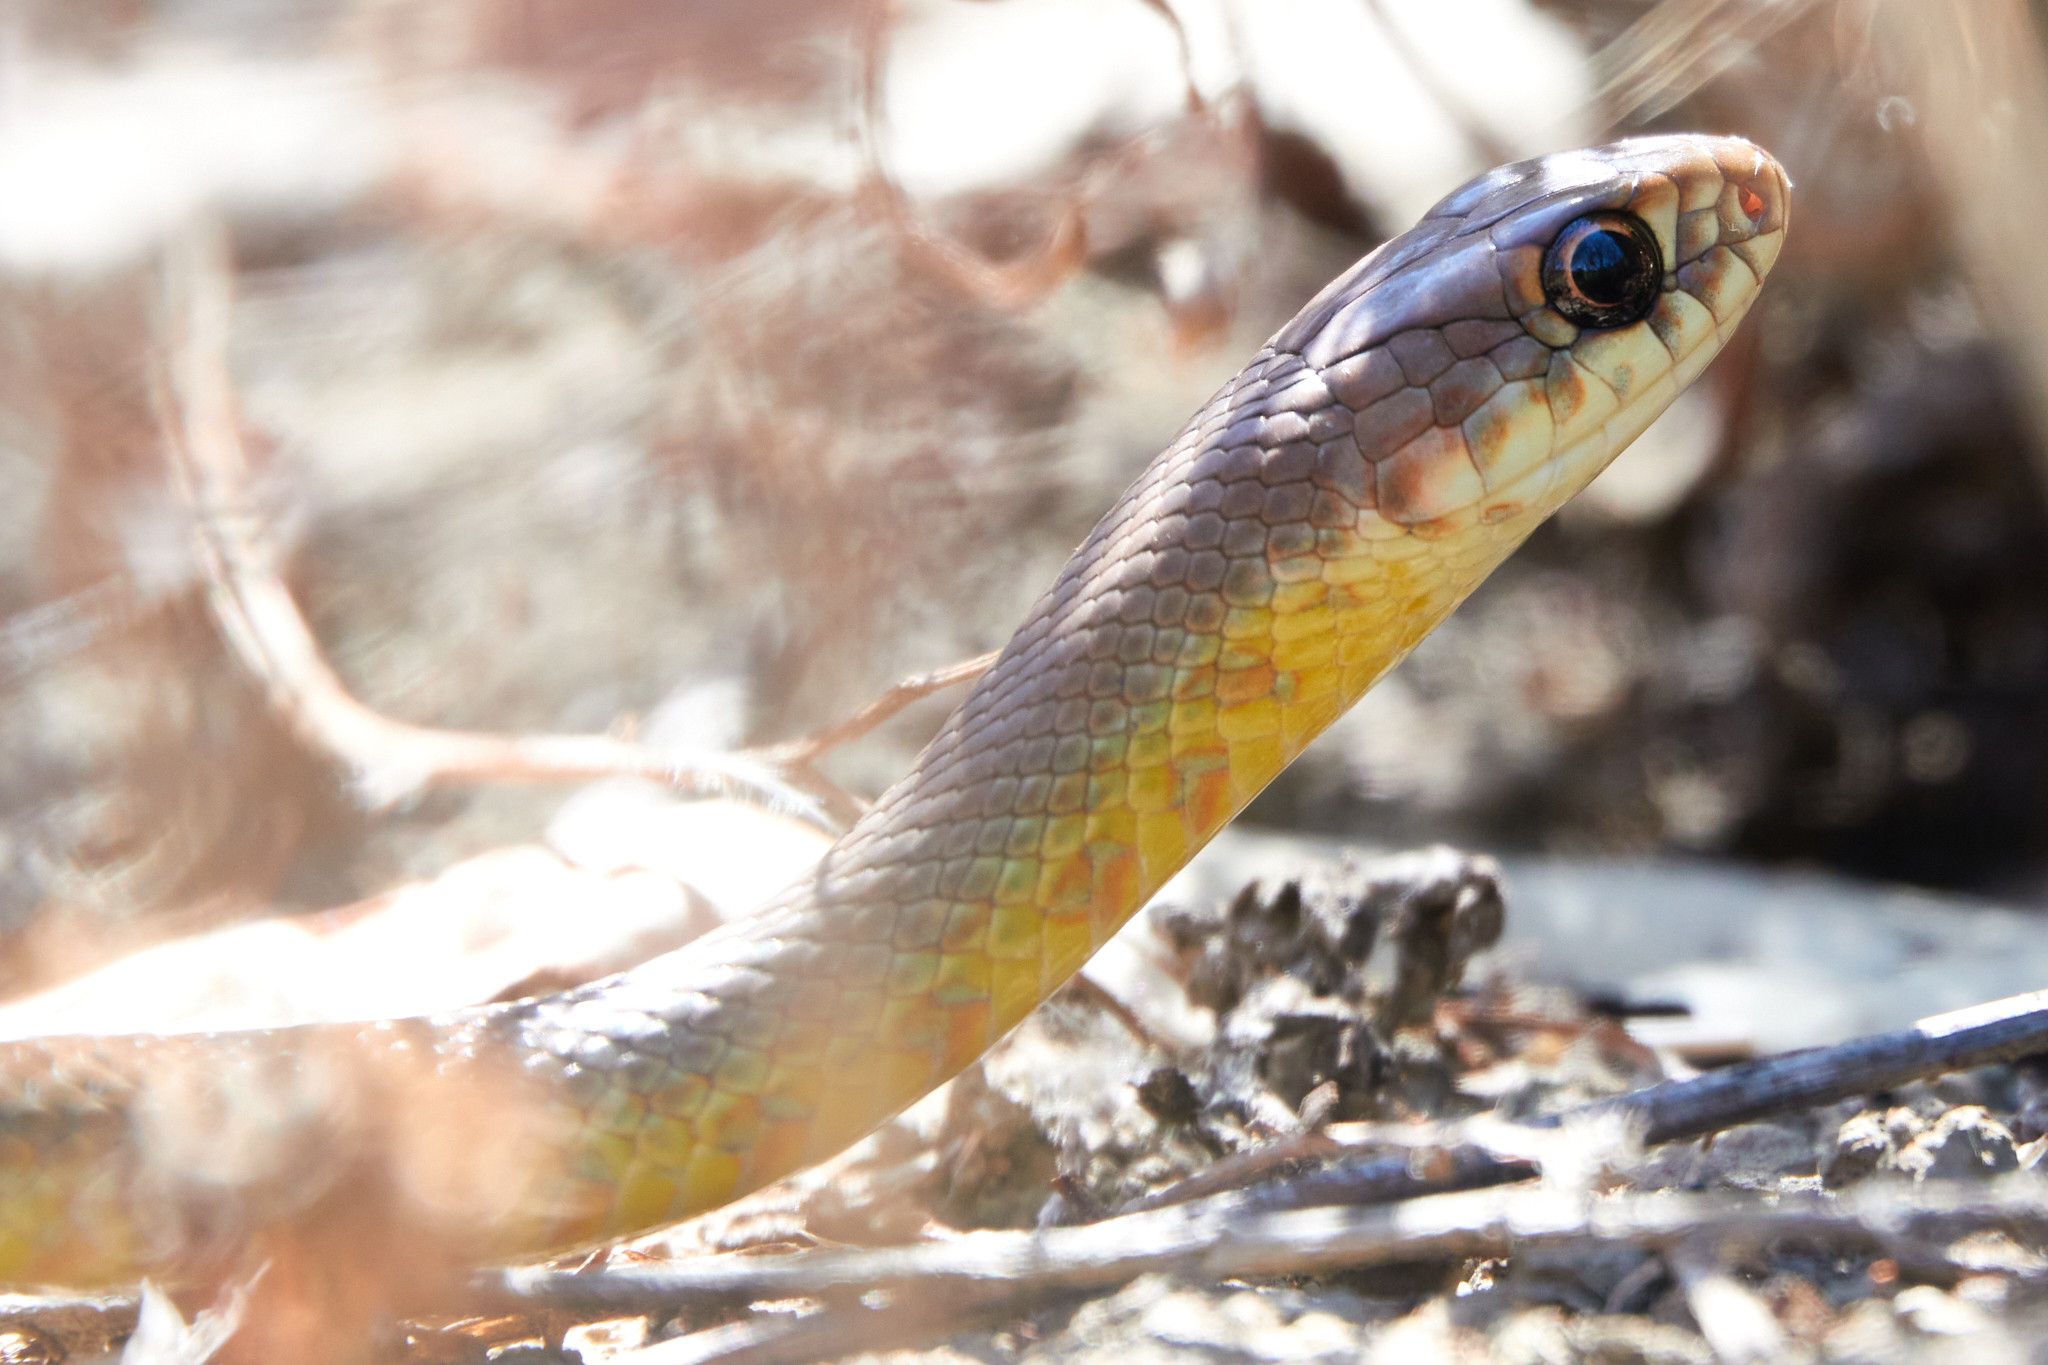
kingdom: Animalia
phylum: Chordata
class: Squamata
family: Colubridae
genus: Coluber
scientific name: Coluber constrictor
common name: Eastern racer
